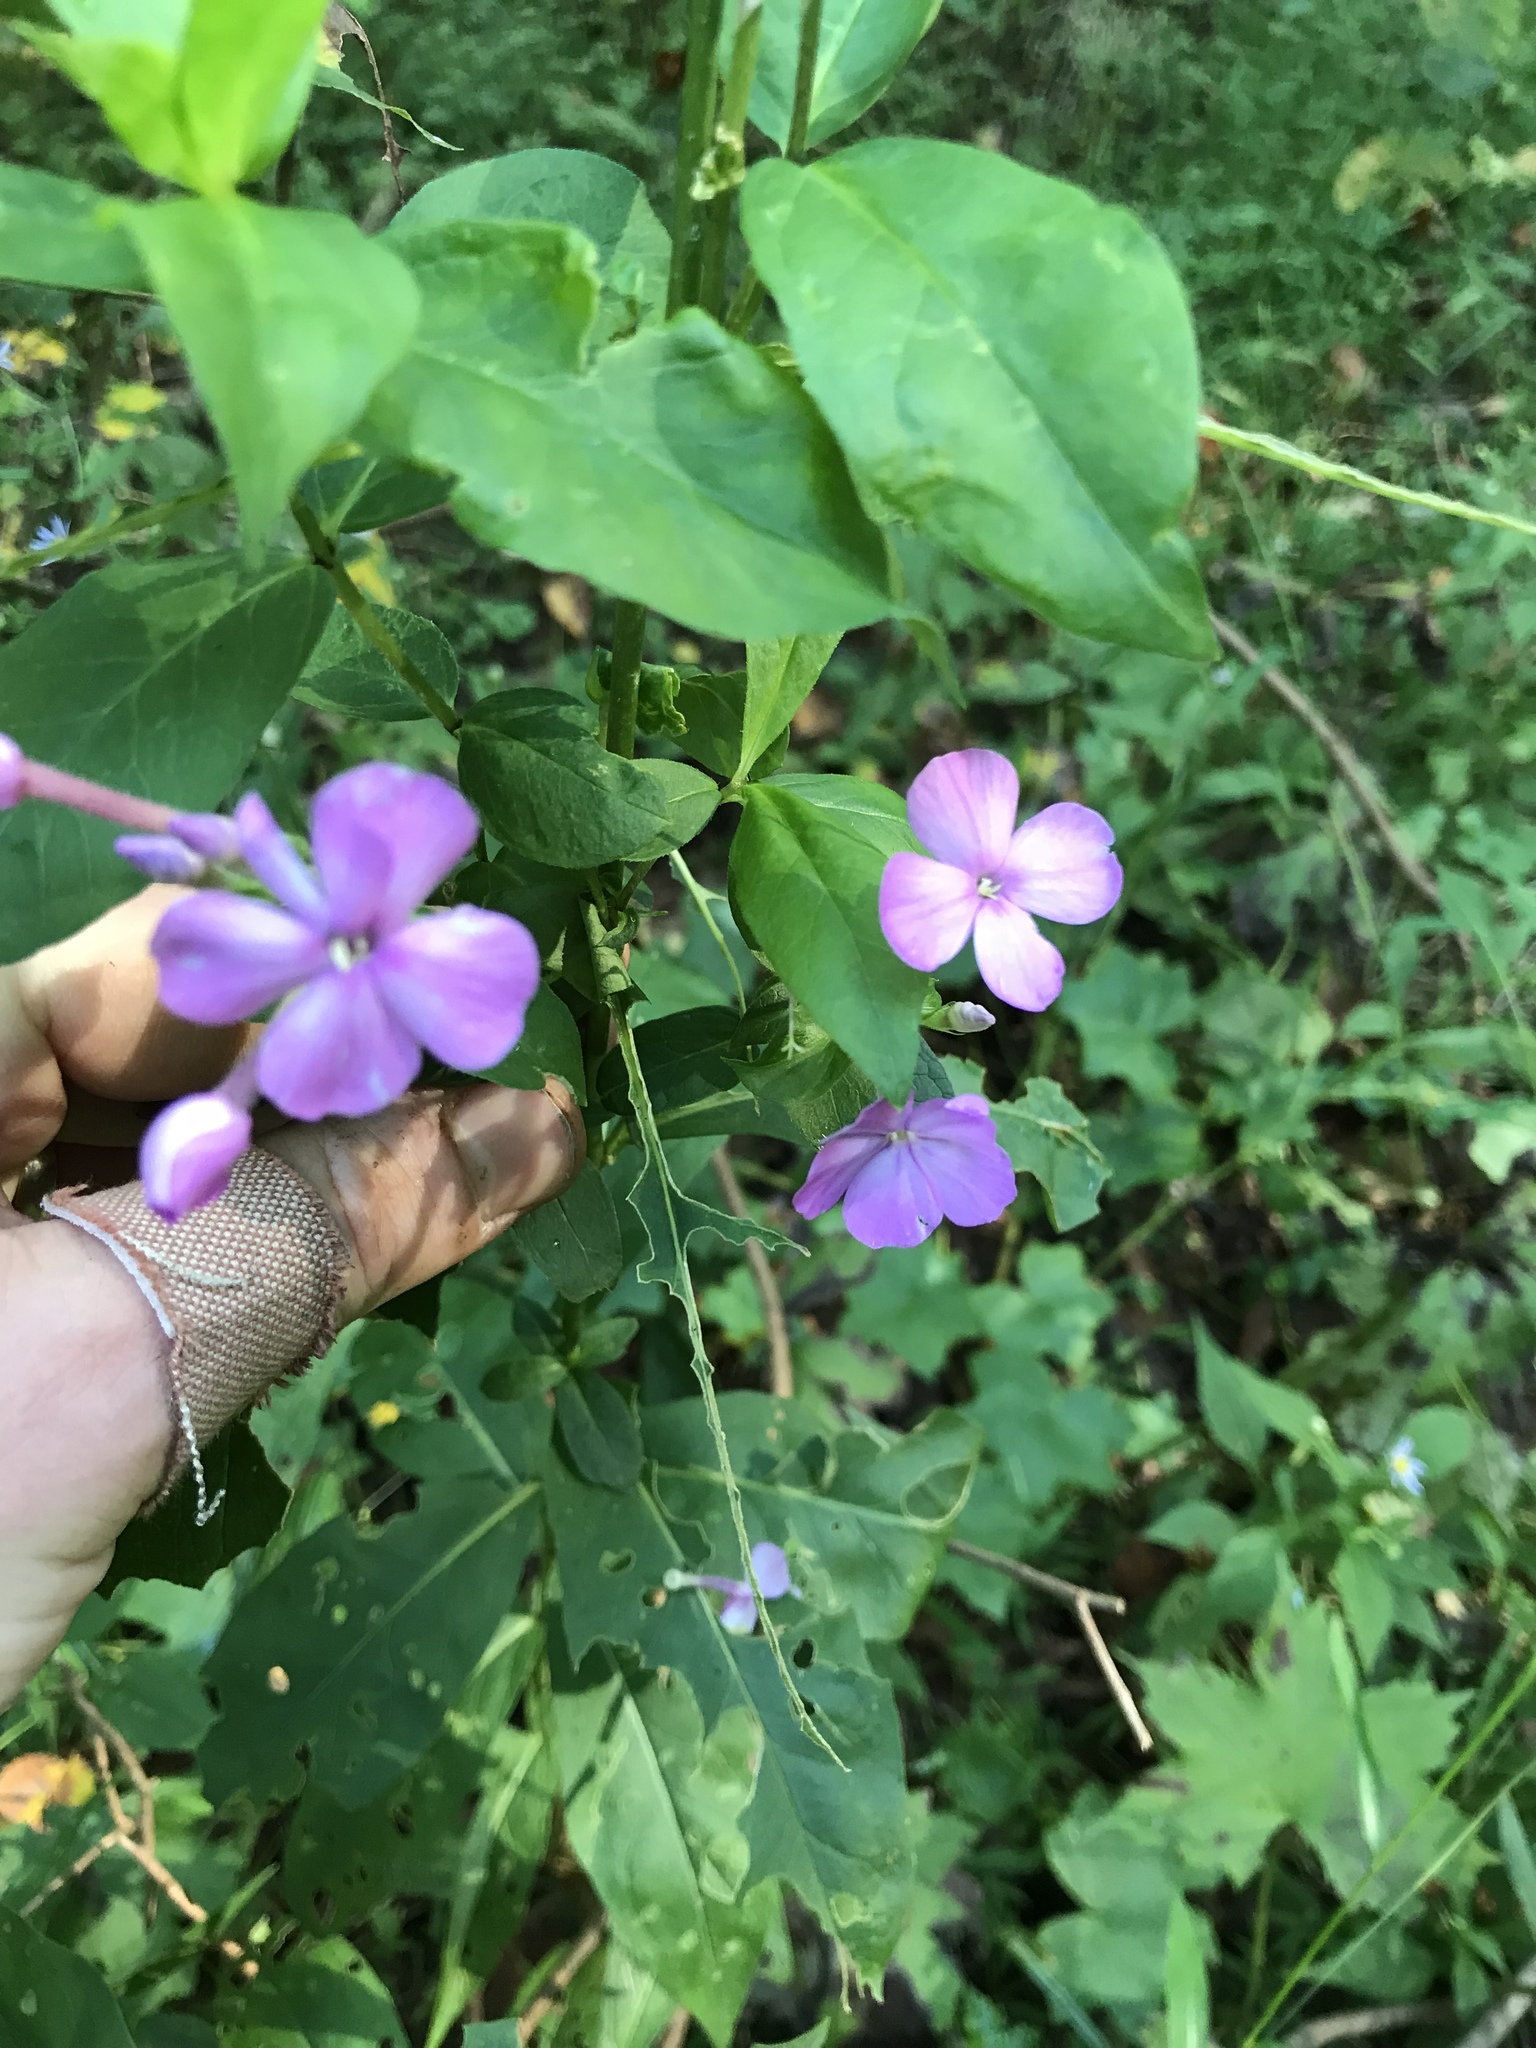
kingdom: Plantae
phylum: Tracheophyta
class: Magnoliopsida
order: Ericales
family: Polemoniaceae
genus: Phlox
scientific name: Phlox paniculata
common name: Fall phlox
